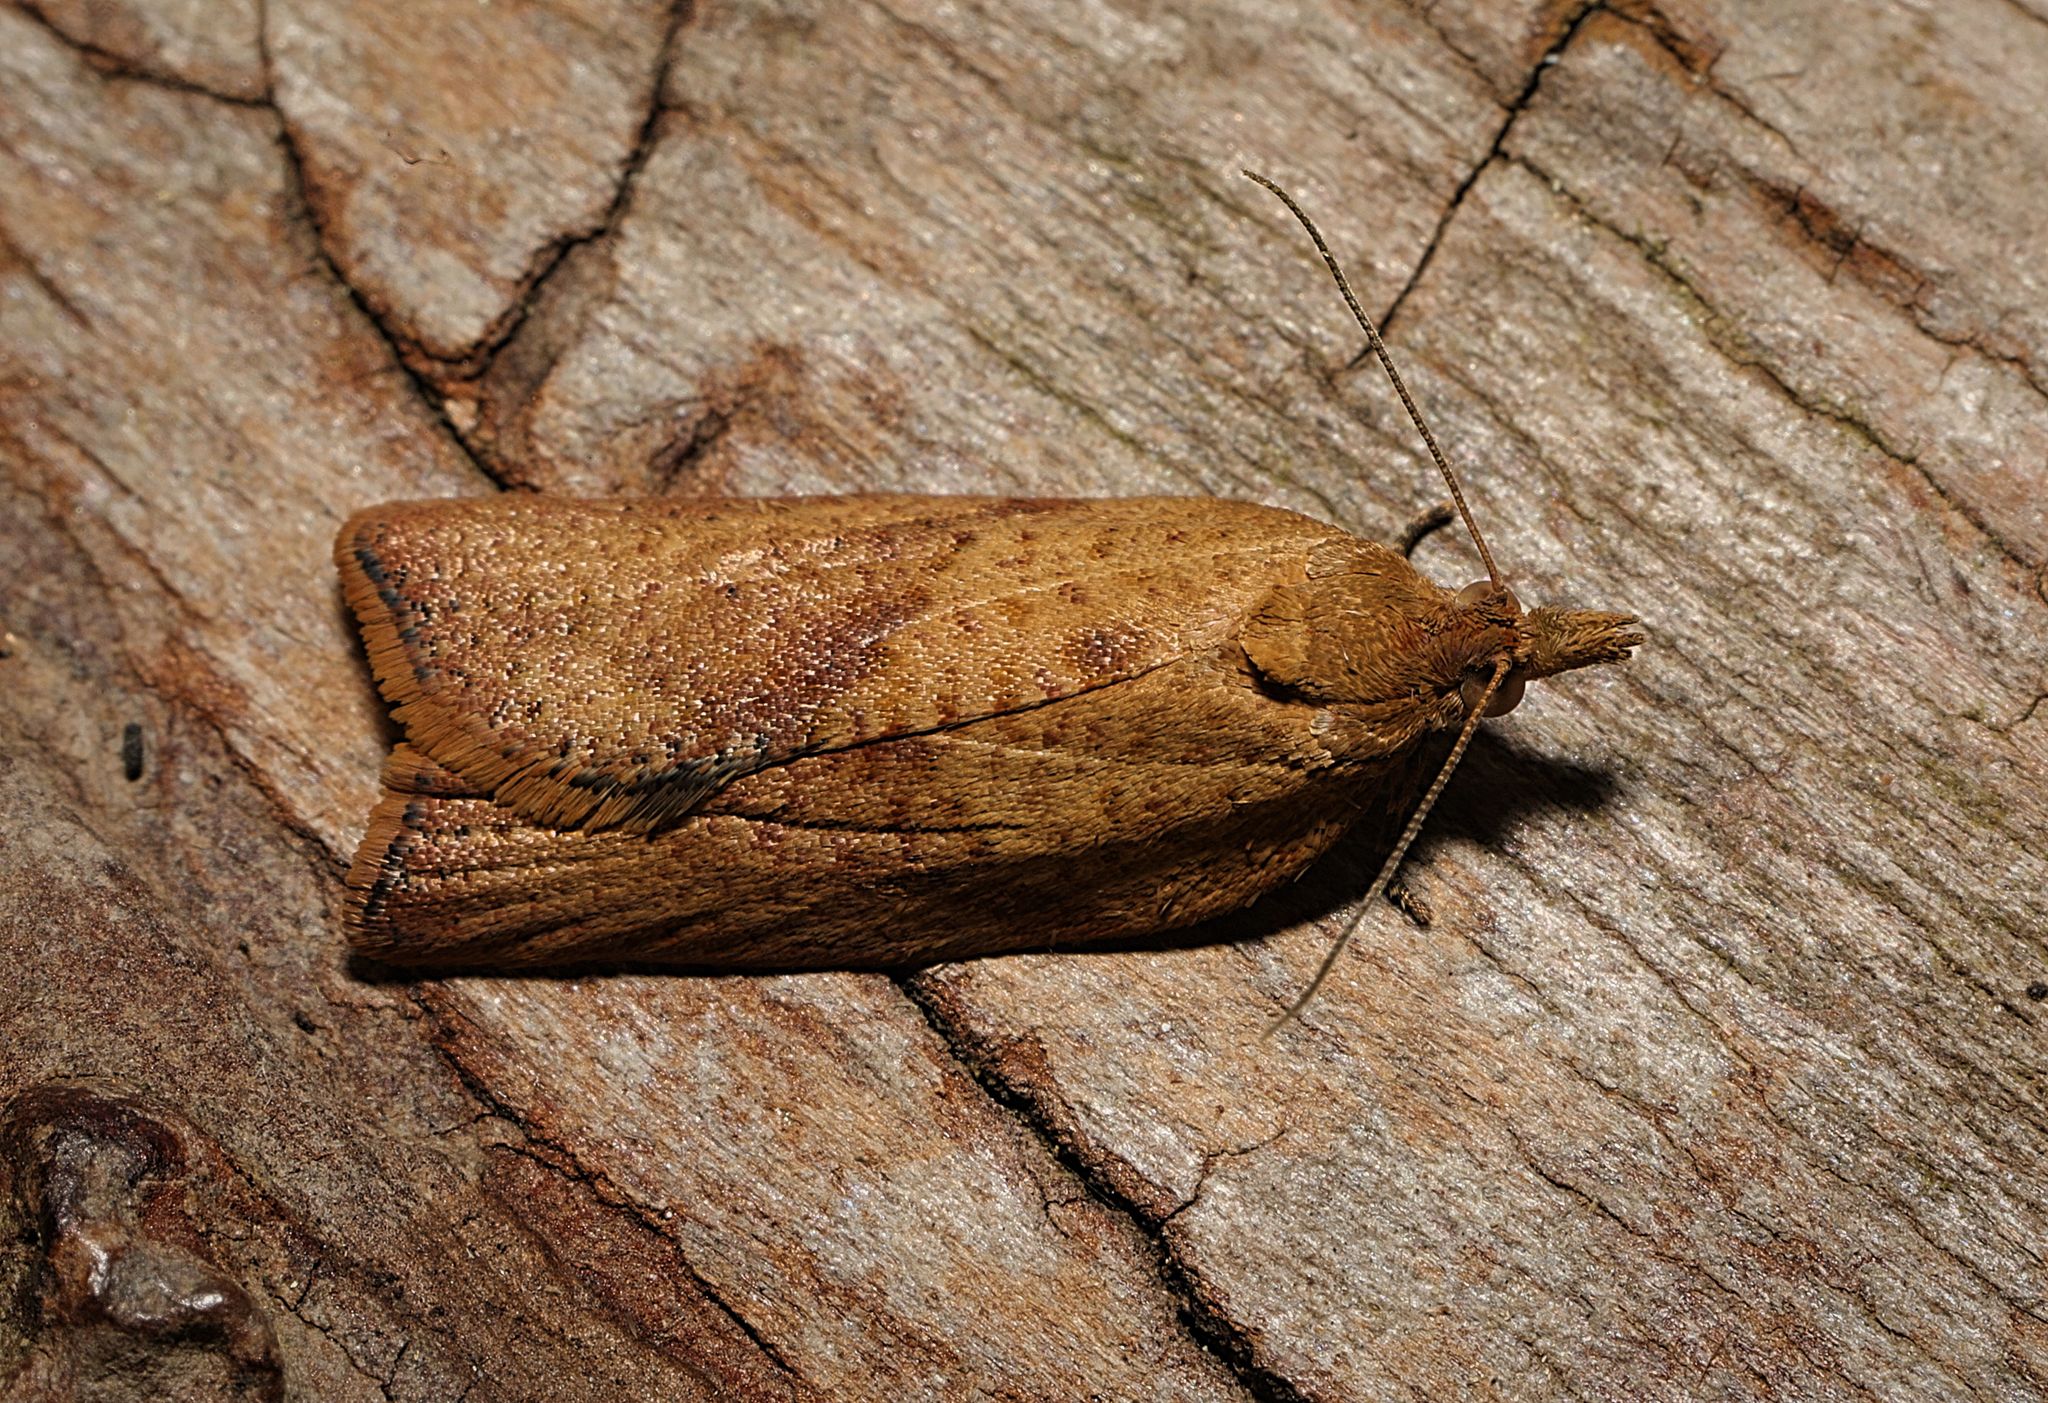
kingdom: Animalia
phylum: Arthropoda
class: Insecta
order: Lepidoptera
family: Tortricidae
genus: Epiphyas
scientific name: Epiphyas postvittana
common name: Light brown apple moth
